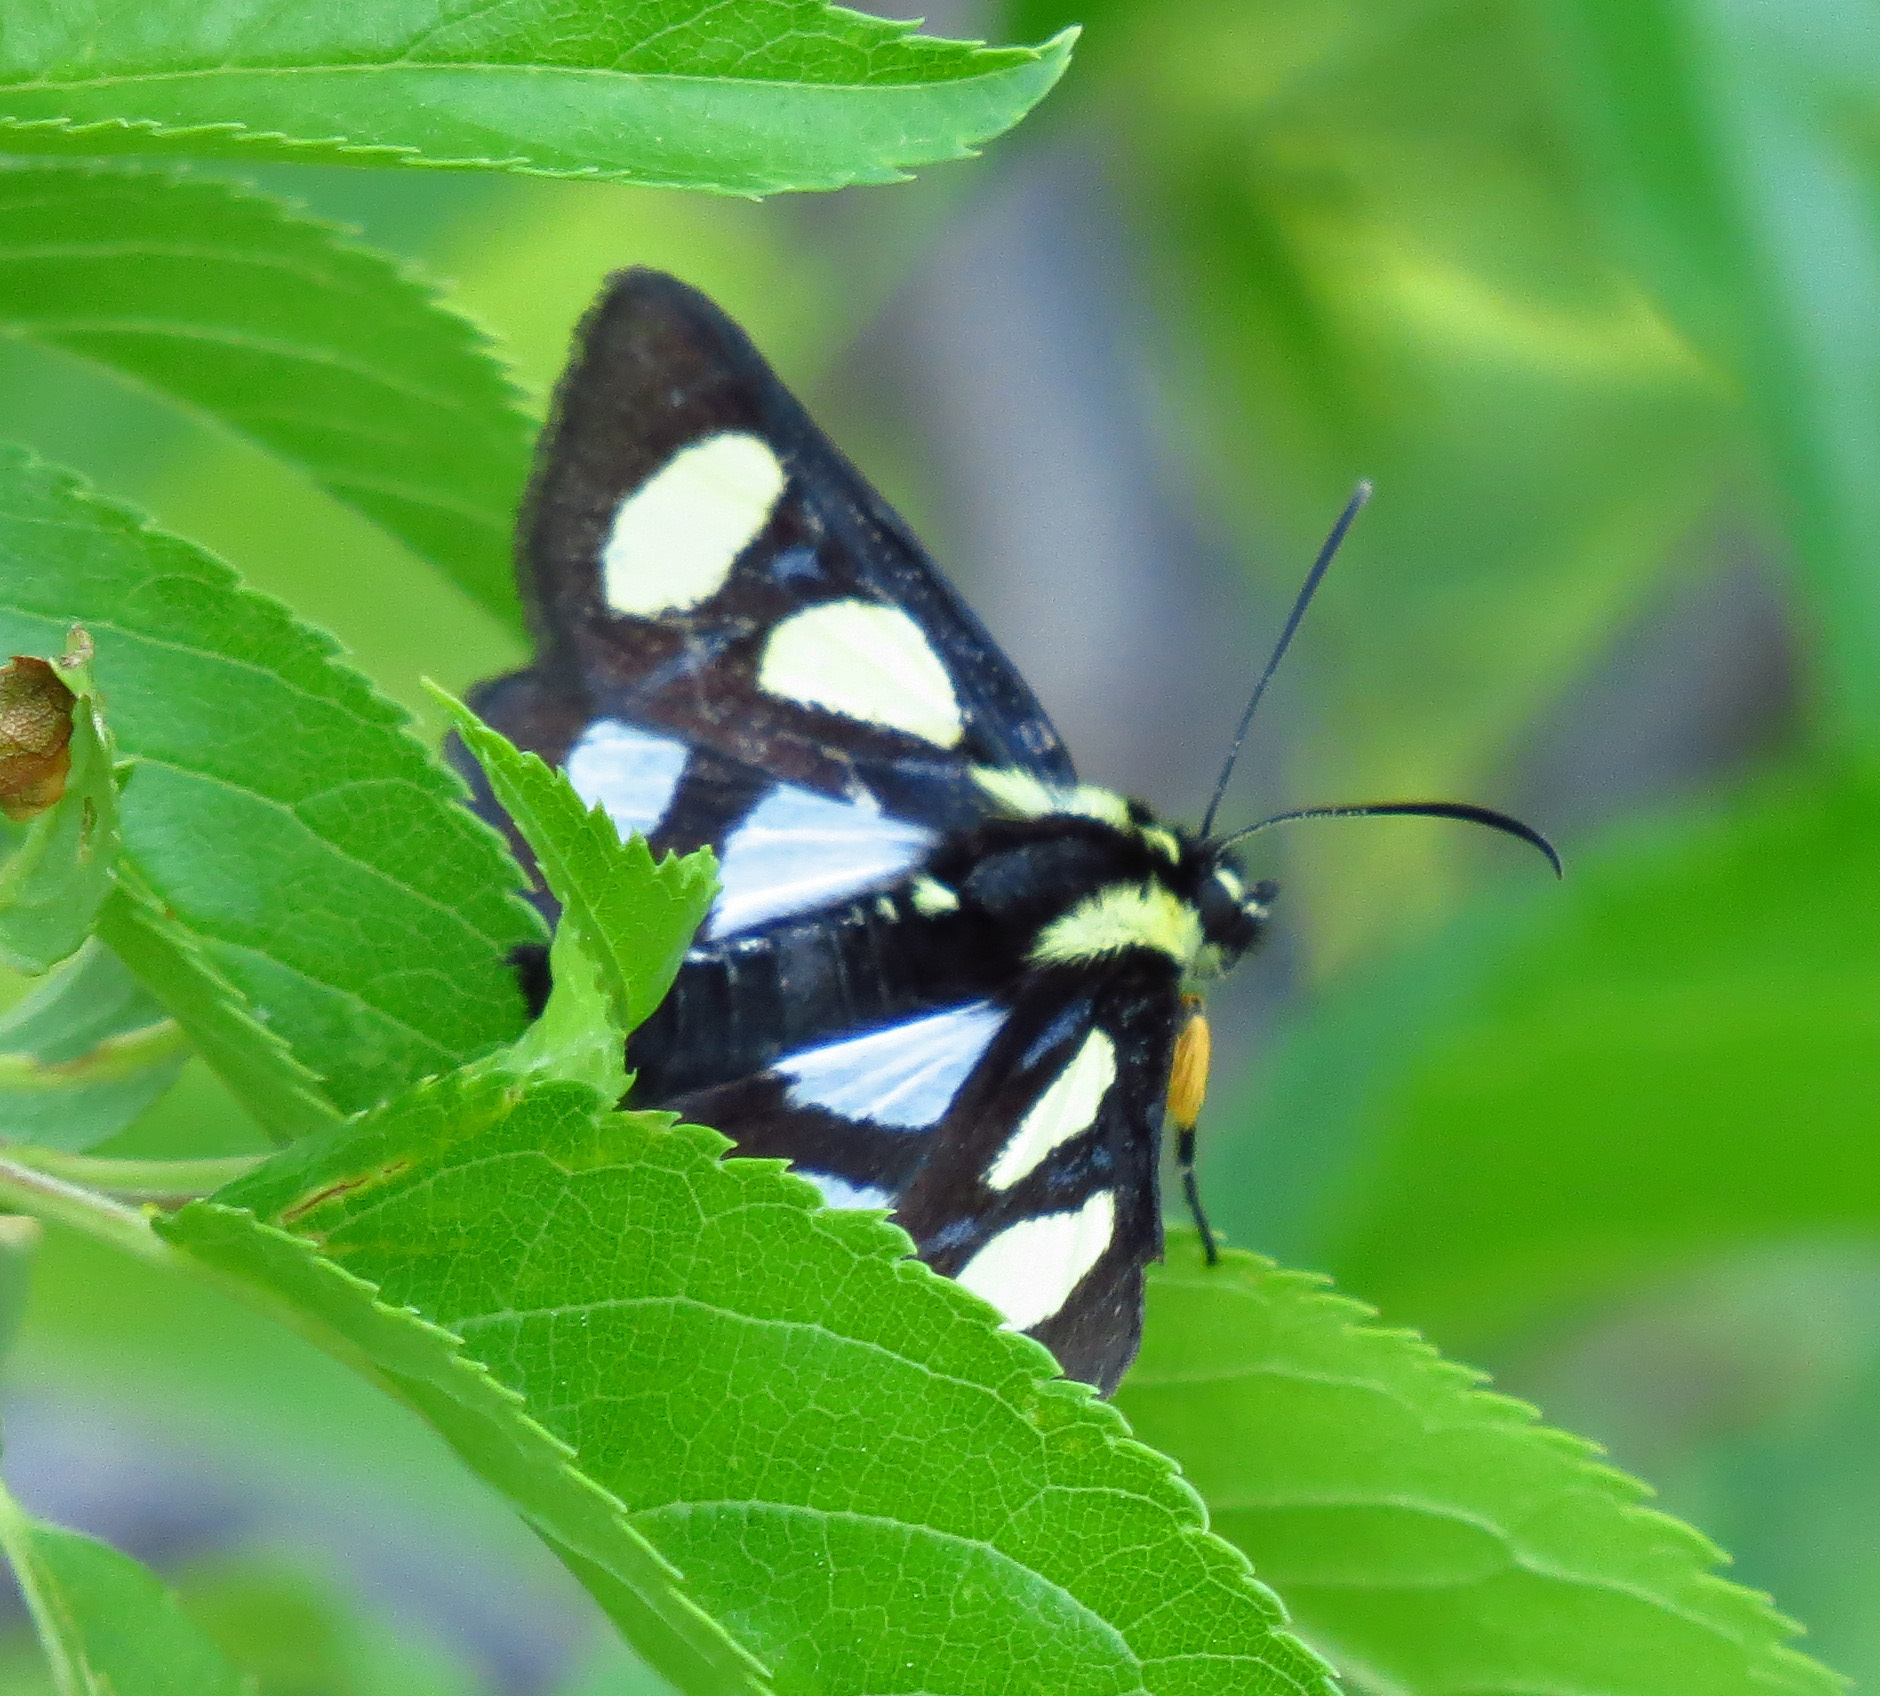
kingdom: Animalia
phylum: Arthropoda
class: Insecta
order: Lepidoptera
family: Noctuidae
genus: Alypia
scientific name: Alypia octomaculata
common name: Eight-spotted forester
